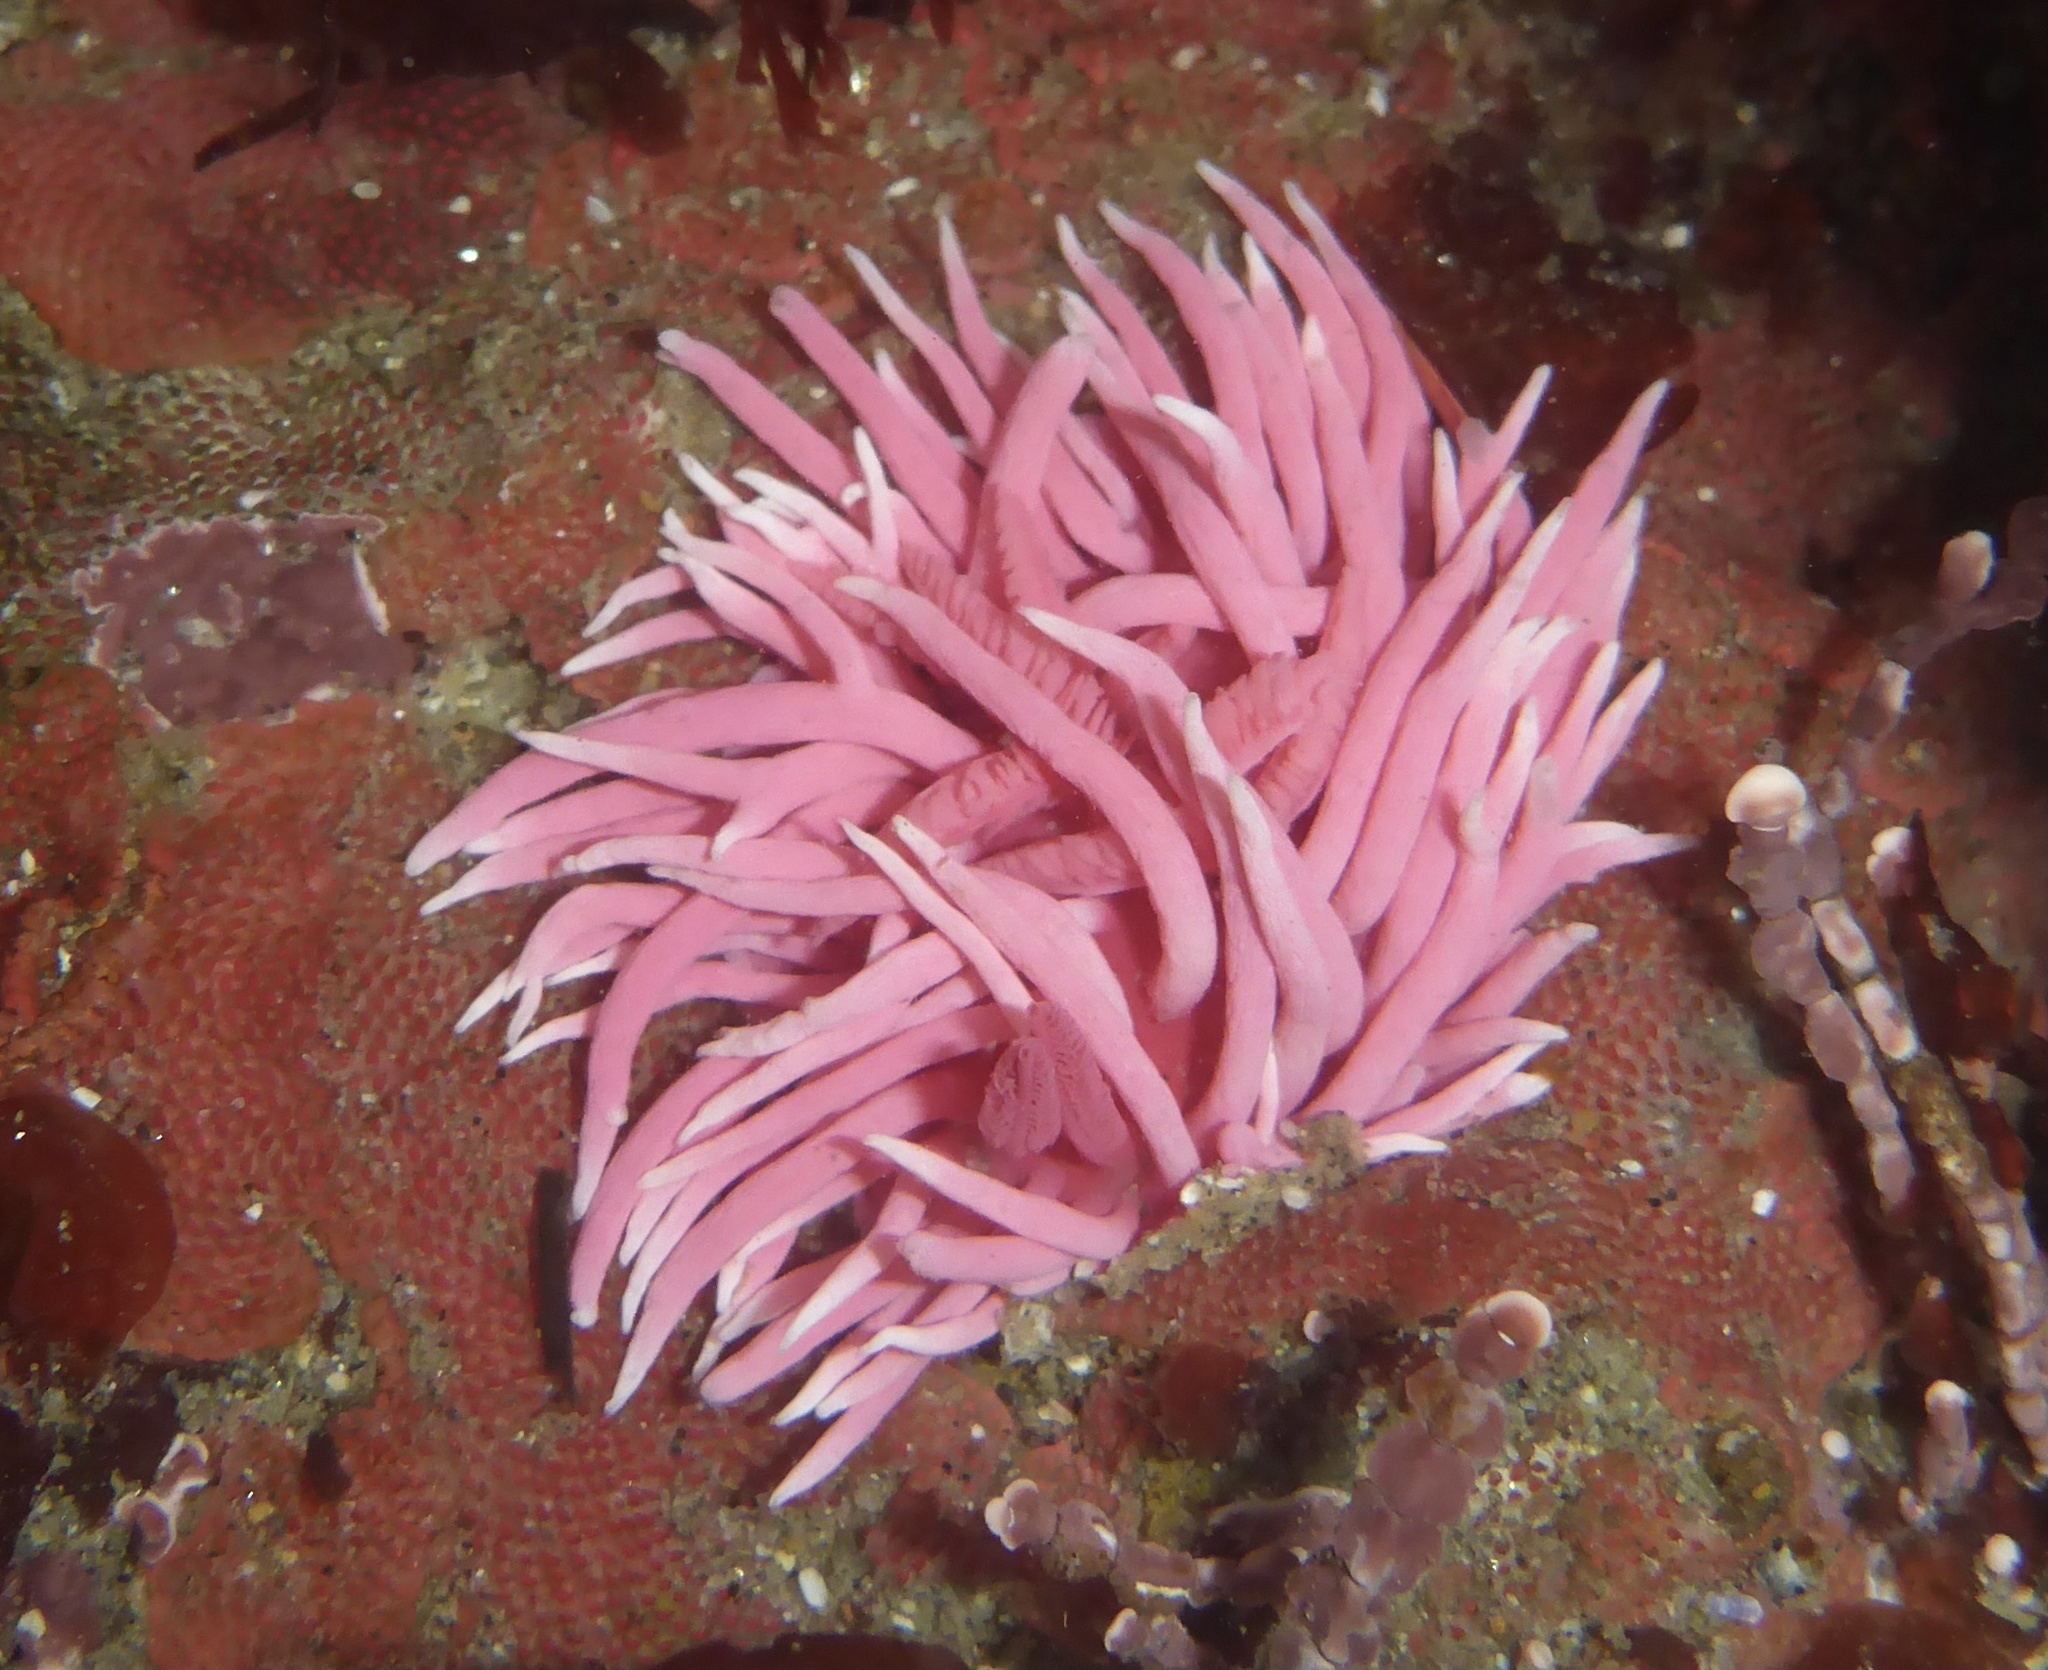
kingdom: Animalia
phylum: Mollusca
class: Gastropoda
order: Nudibranchia
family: Goniodorididae
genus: Okenia
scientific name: Okenia
